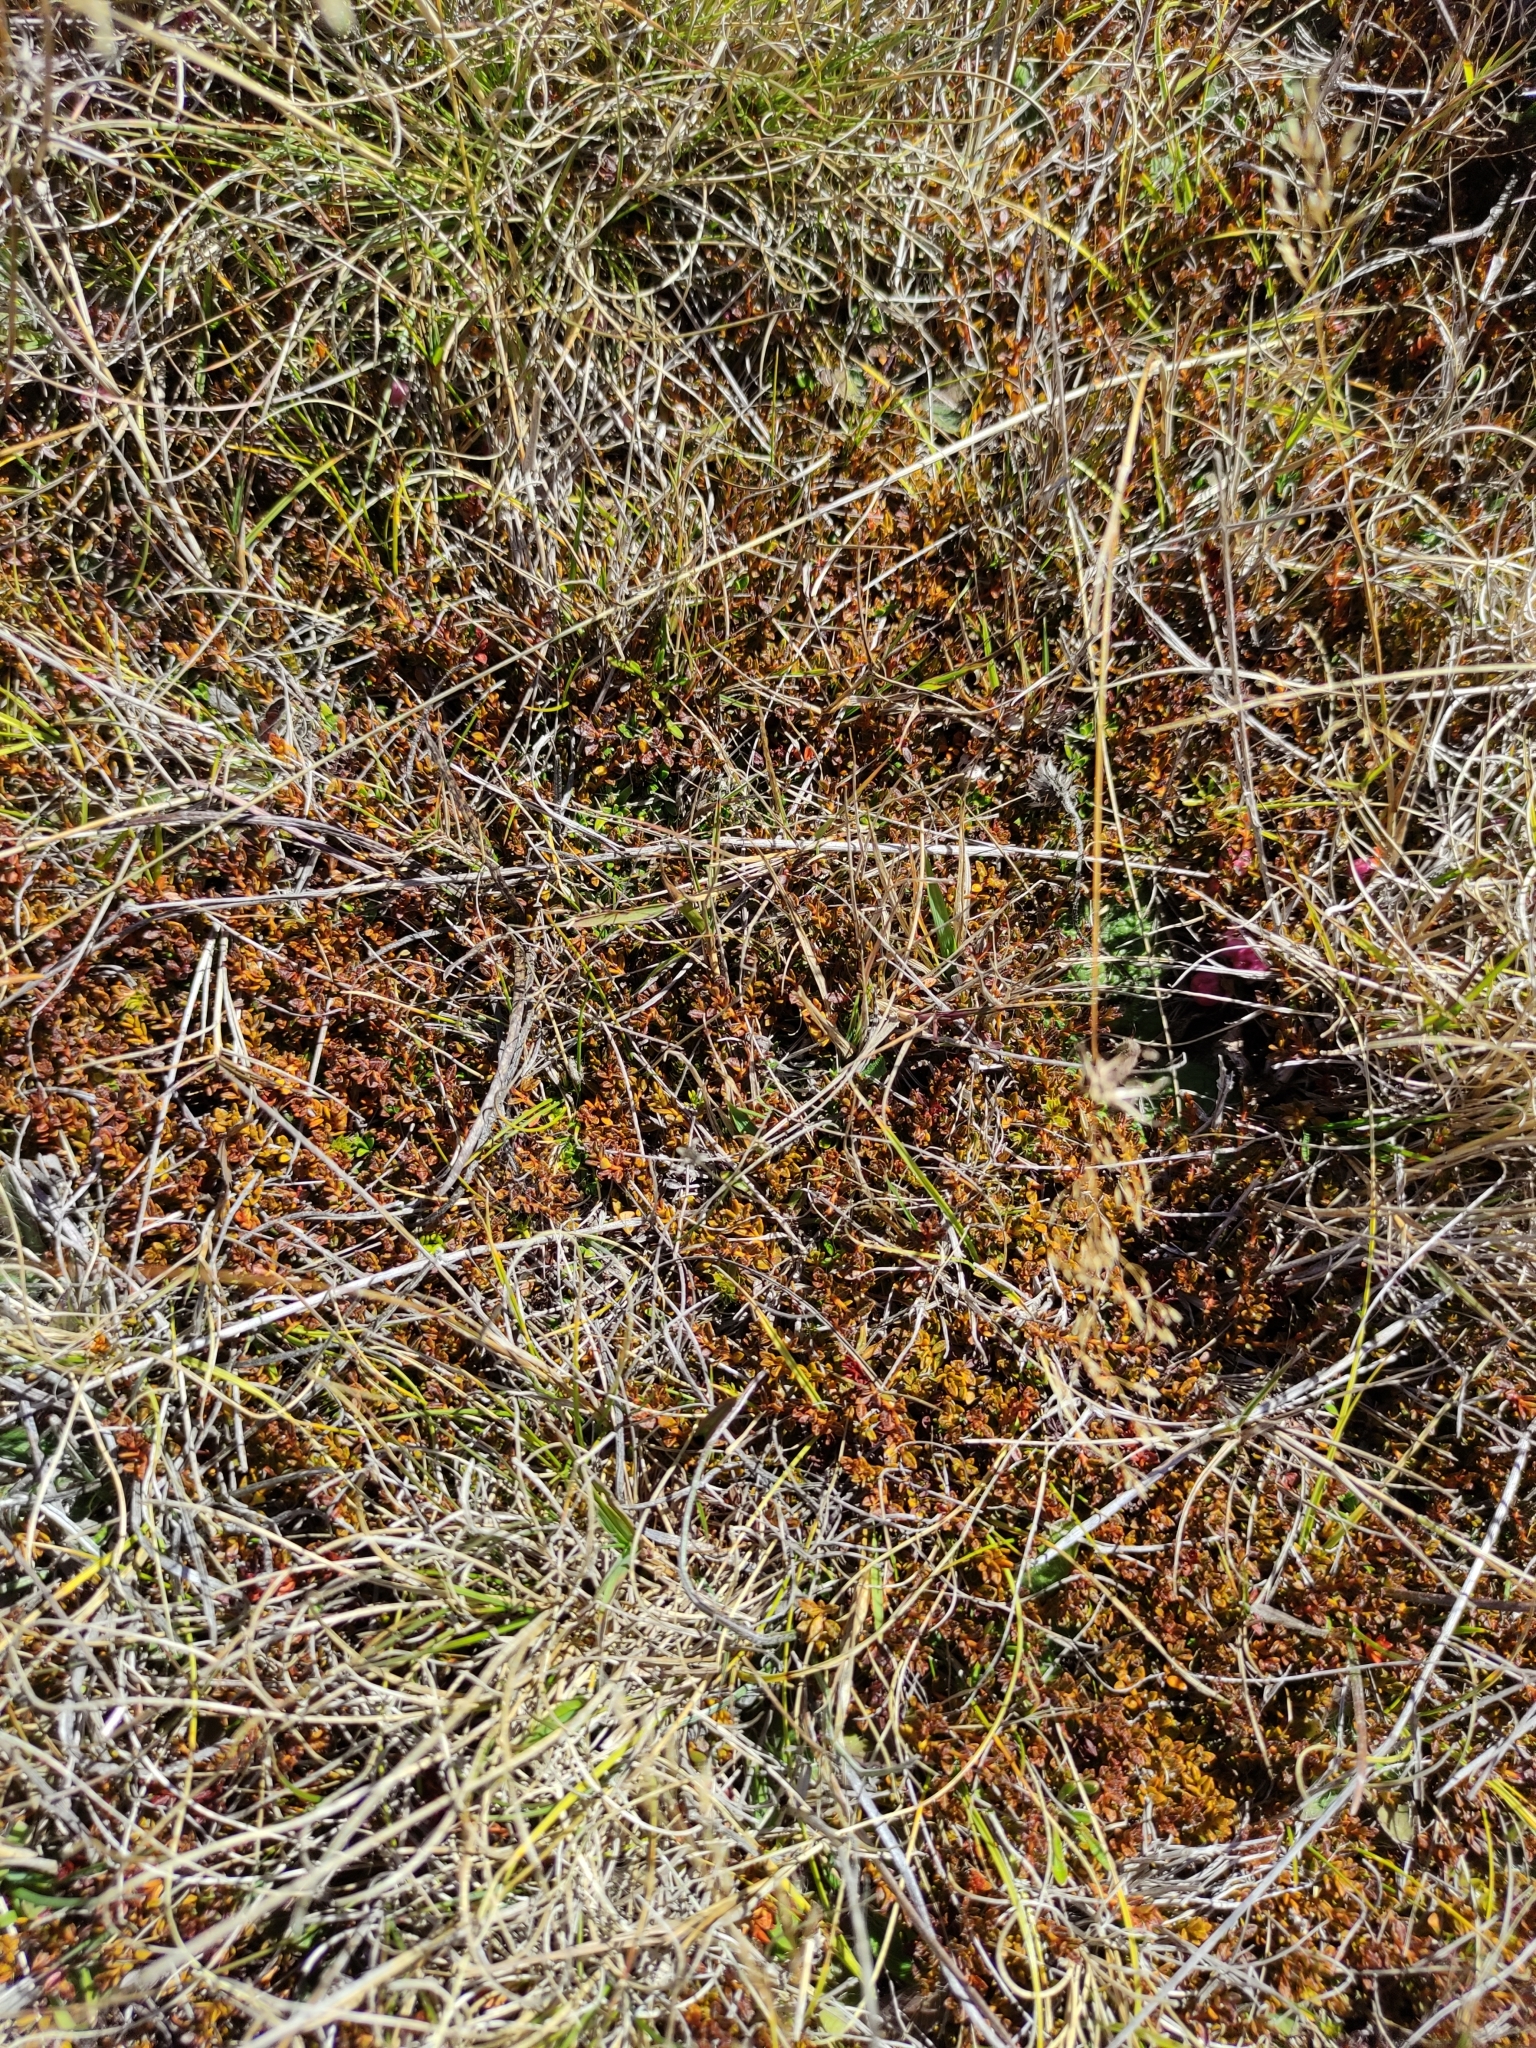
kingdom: Plantae
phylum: Tracheophyta
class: Magnoliopsida
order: Ericales
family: Ericaceae
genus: Gaultheria
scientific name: Gaultheria parvula
